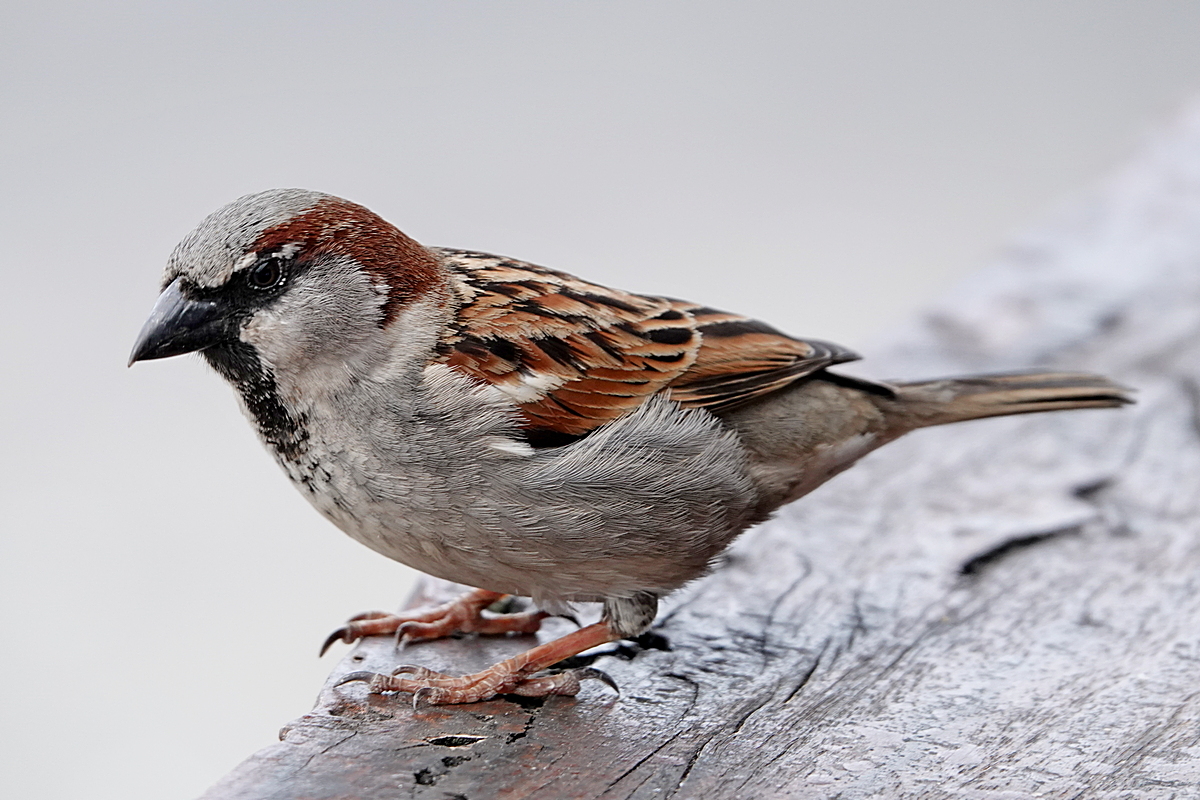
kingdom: Animalia
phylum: Chordata
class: Aves
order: Passeriformes
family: Passeridae
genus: Passer
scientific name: Passer domesticus
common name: House sparrow
